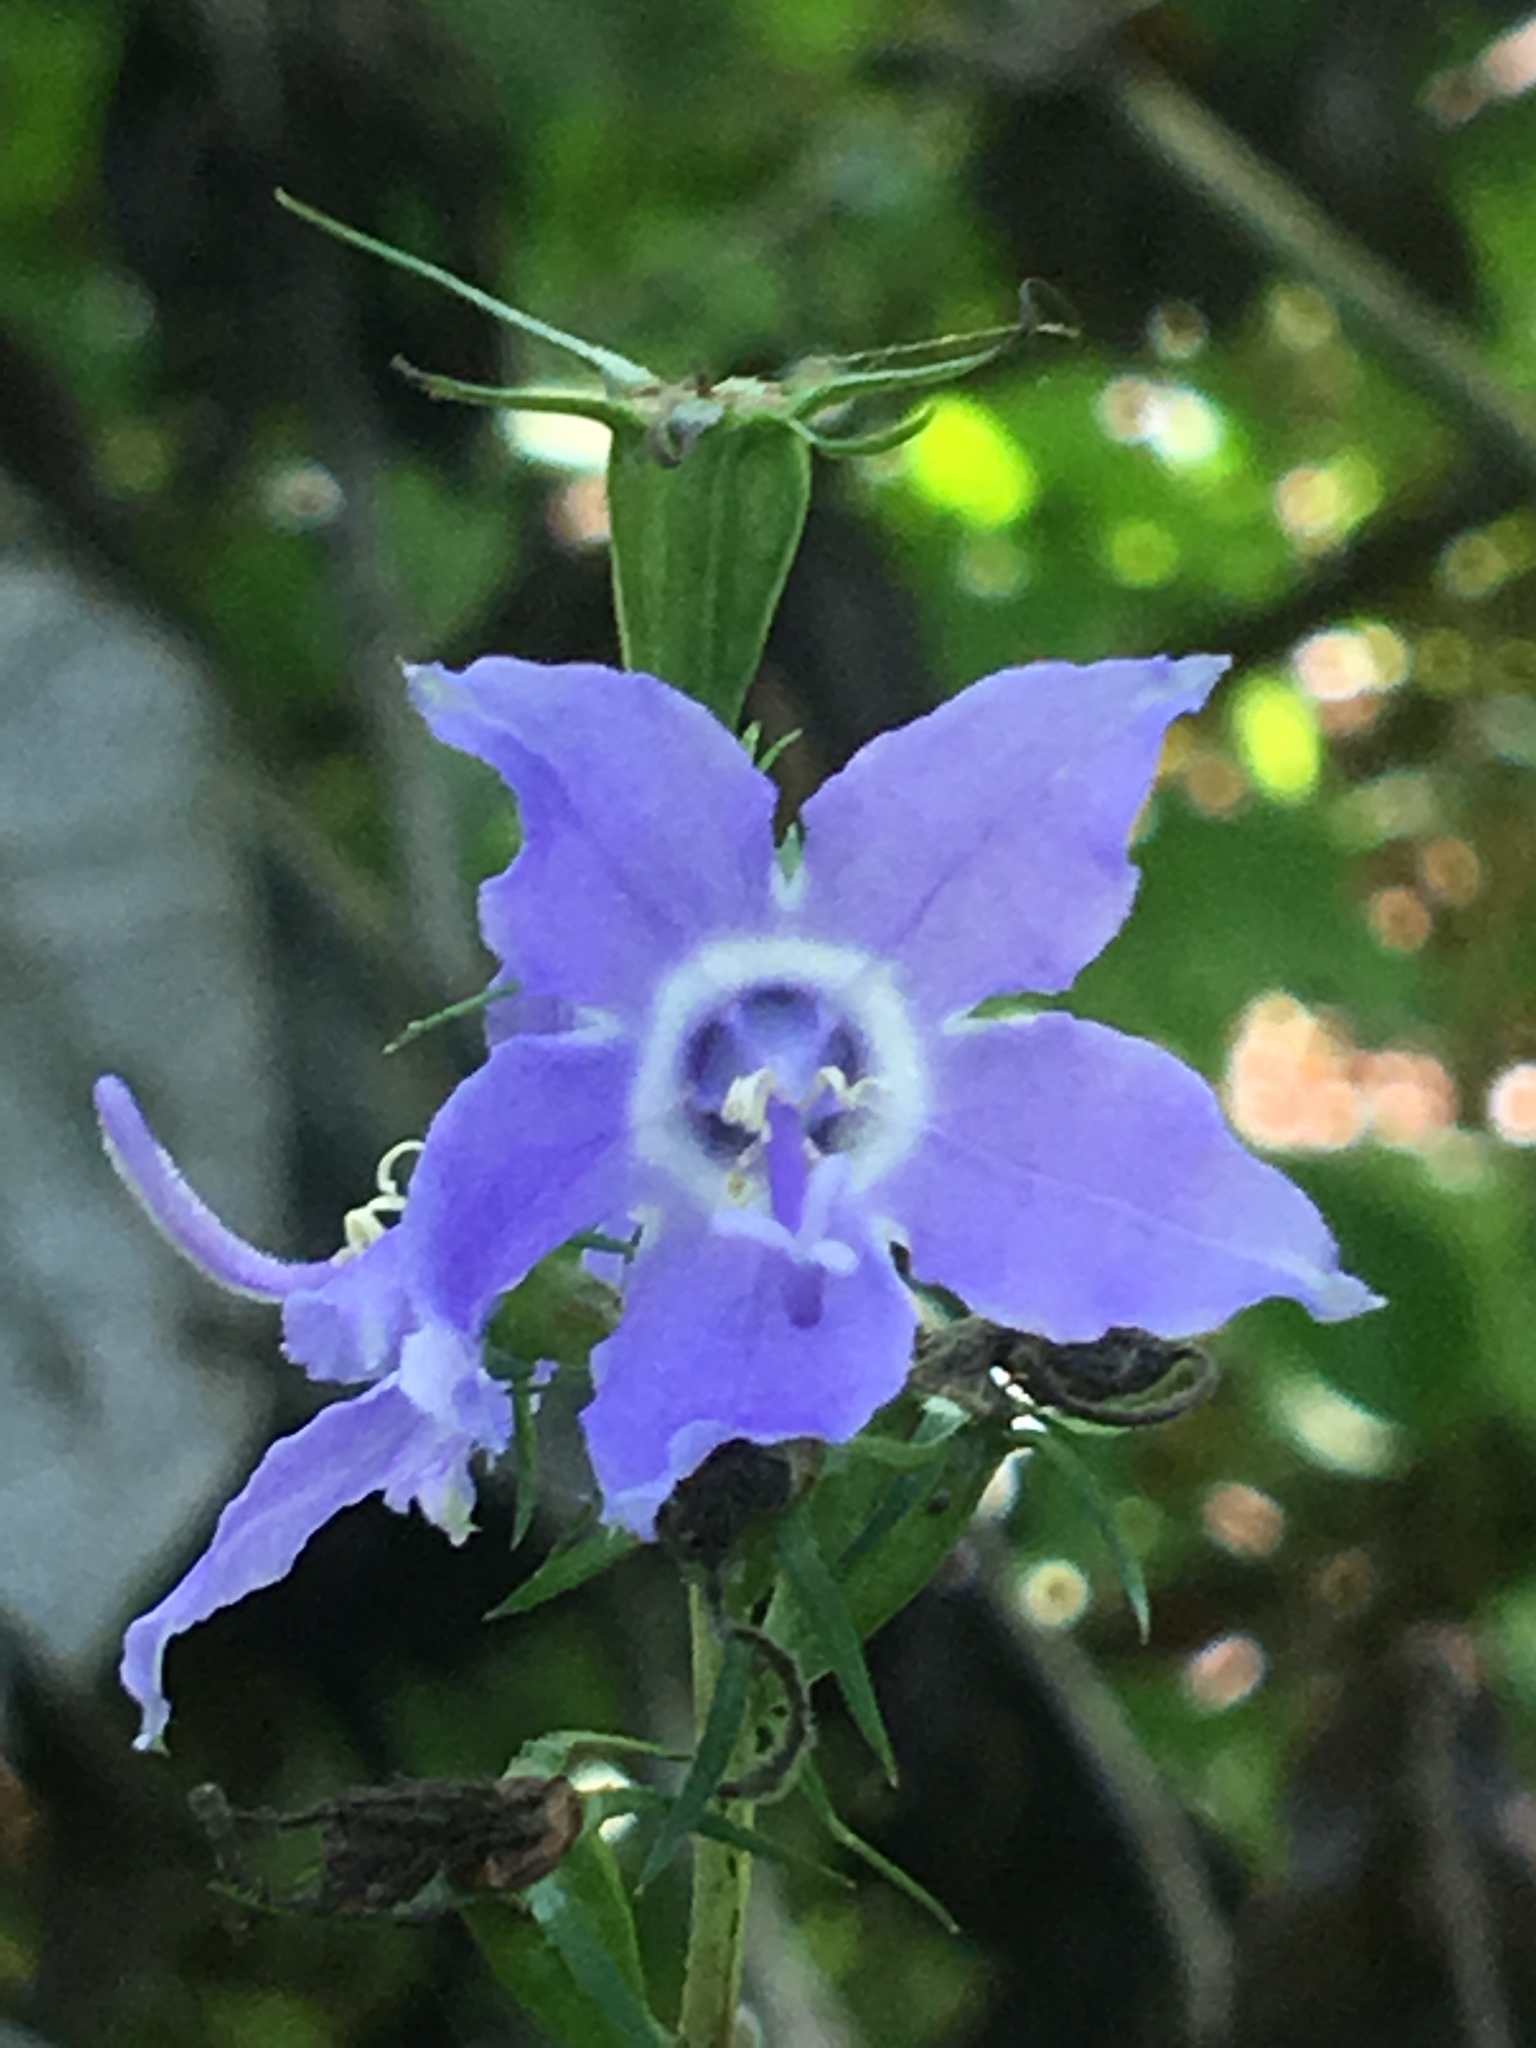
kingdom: Plantae
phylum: Tracheophyta
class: Magnoliopsida
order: Asterales
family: Campanulaceae
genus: Campanulastrum
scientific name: Campanulastrum americanum
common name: American bellflower
